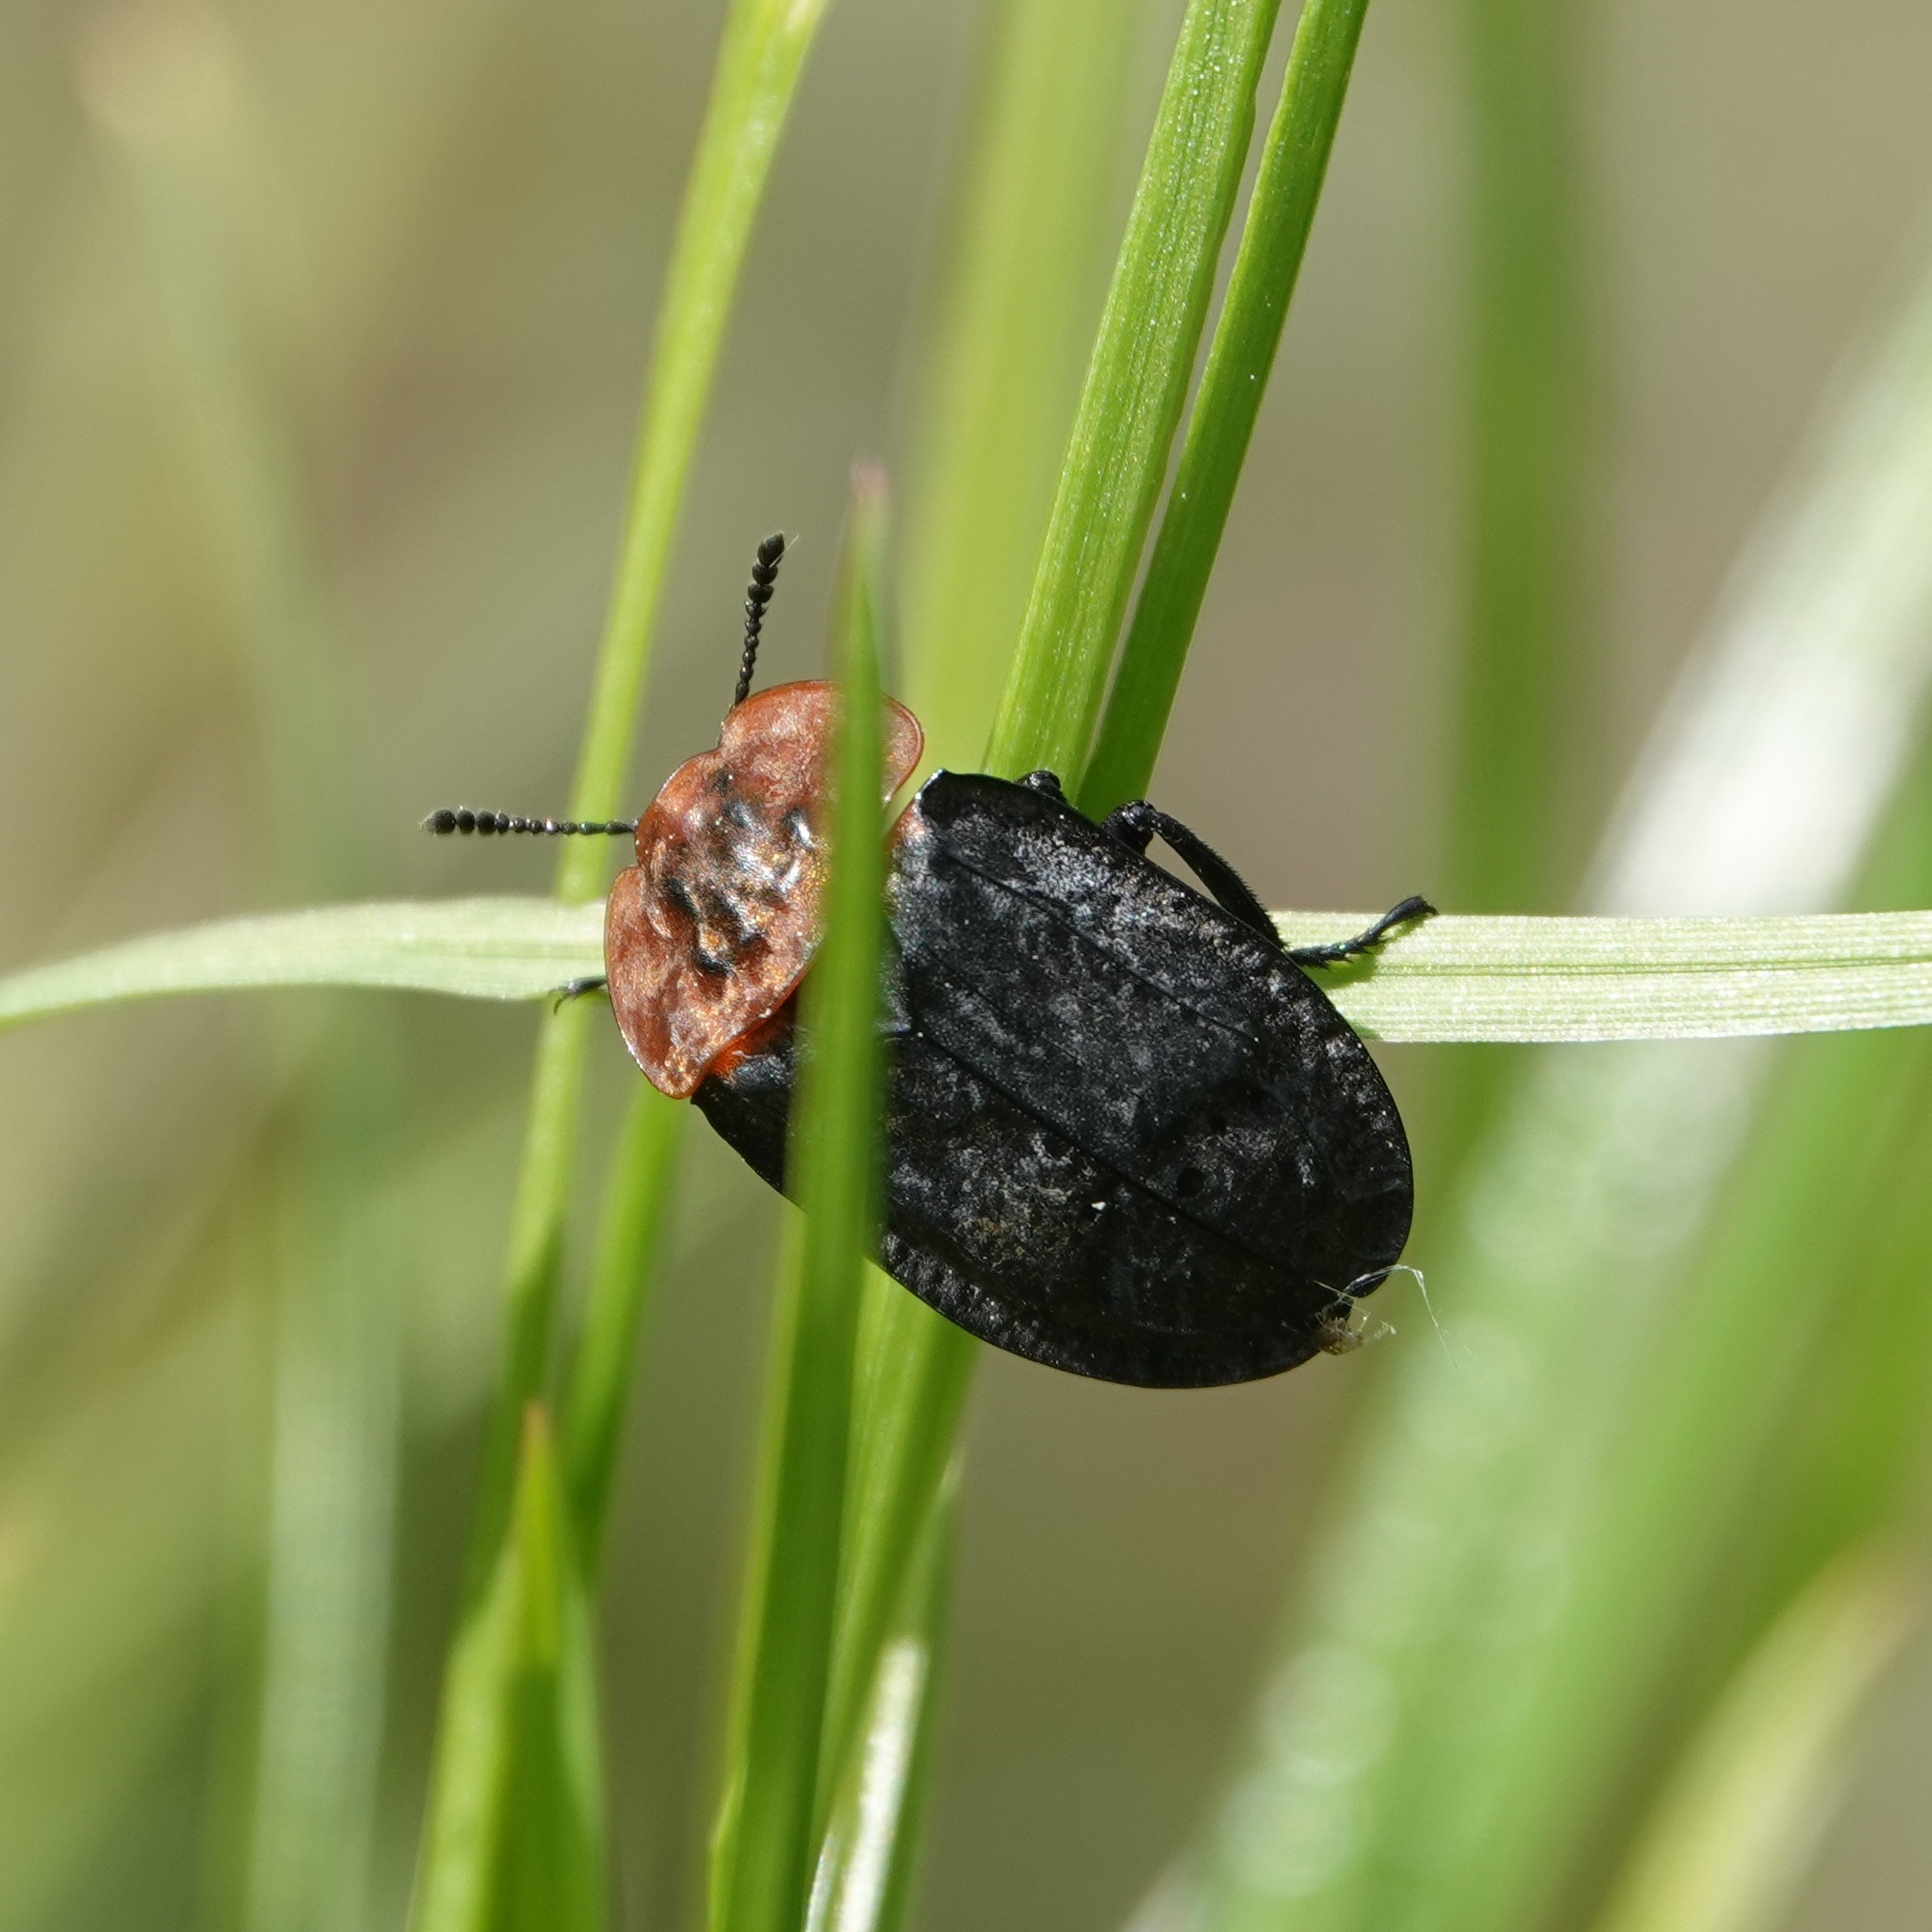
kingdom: Animalia
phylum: Arthropoda
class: Insecta
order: Coleoptera
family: Staphylinidae
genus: Oiceoptoma
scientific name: Oiceoptoma thoracicum
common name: Red-breasted carrion beetle
